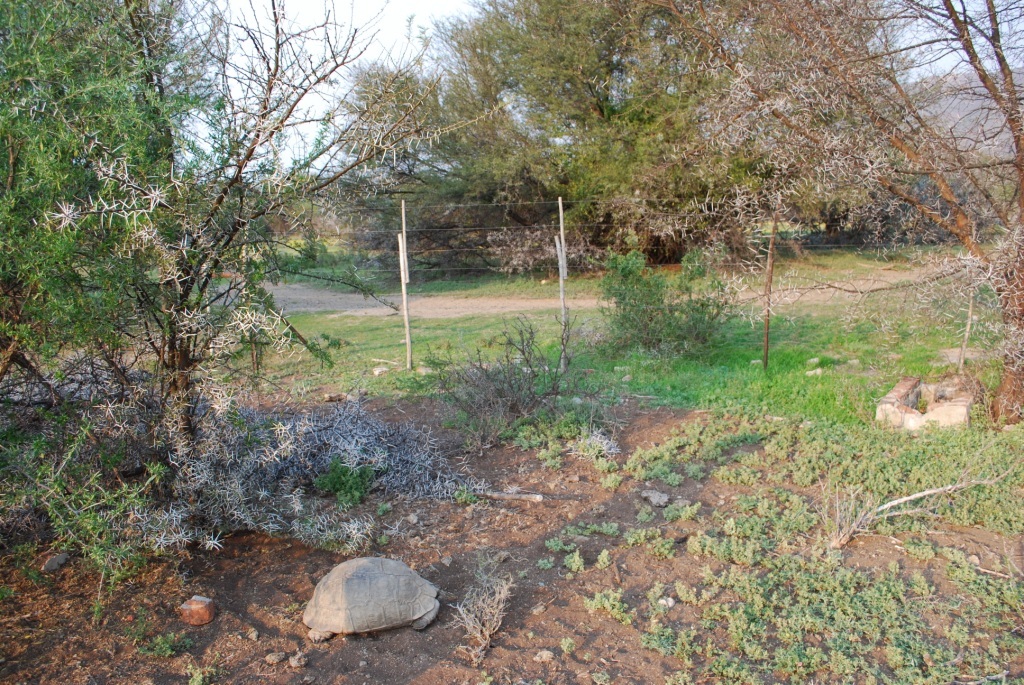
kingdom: Animalia
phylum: Chordata
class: Testudines
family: Testudinidae
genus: Stigmochelys
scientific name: Stigmochelys pardalis
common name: Leopard tortoise
